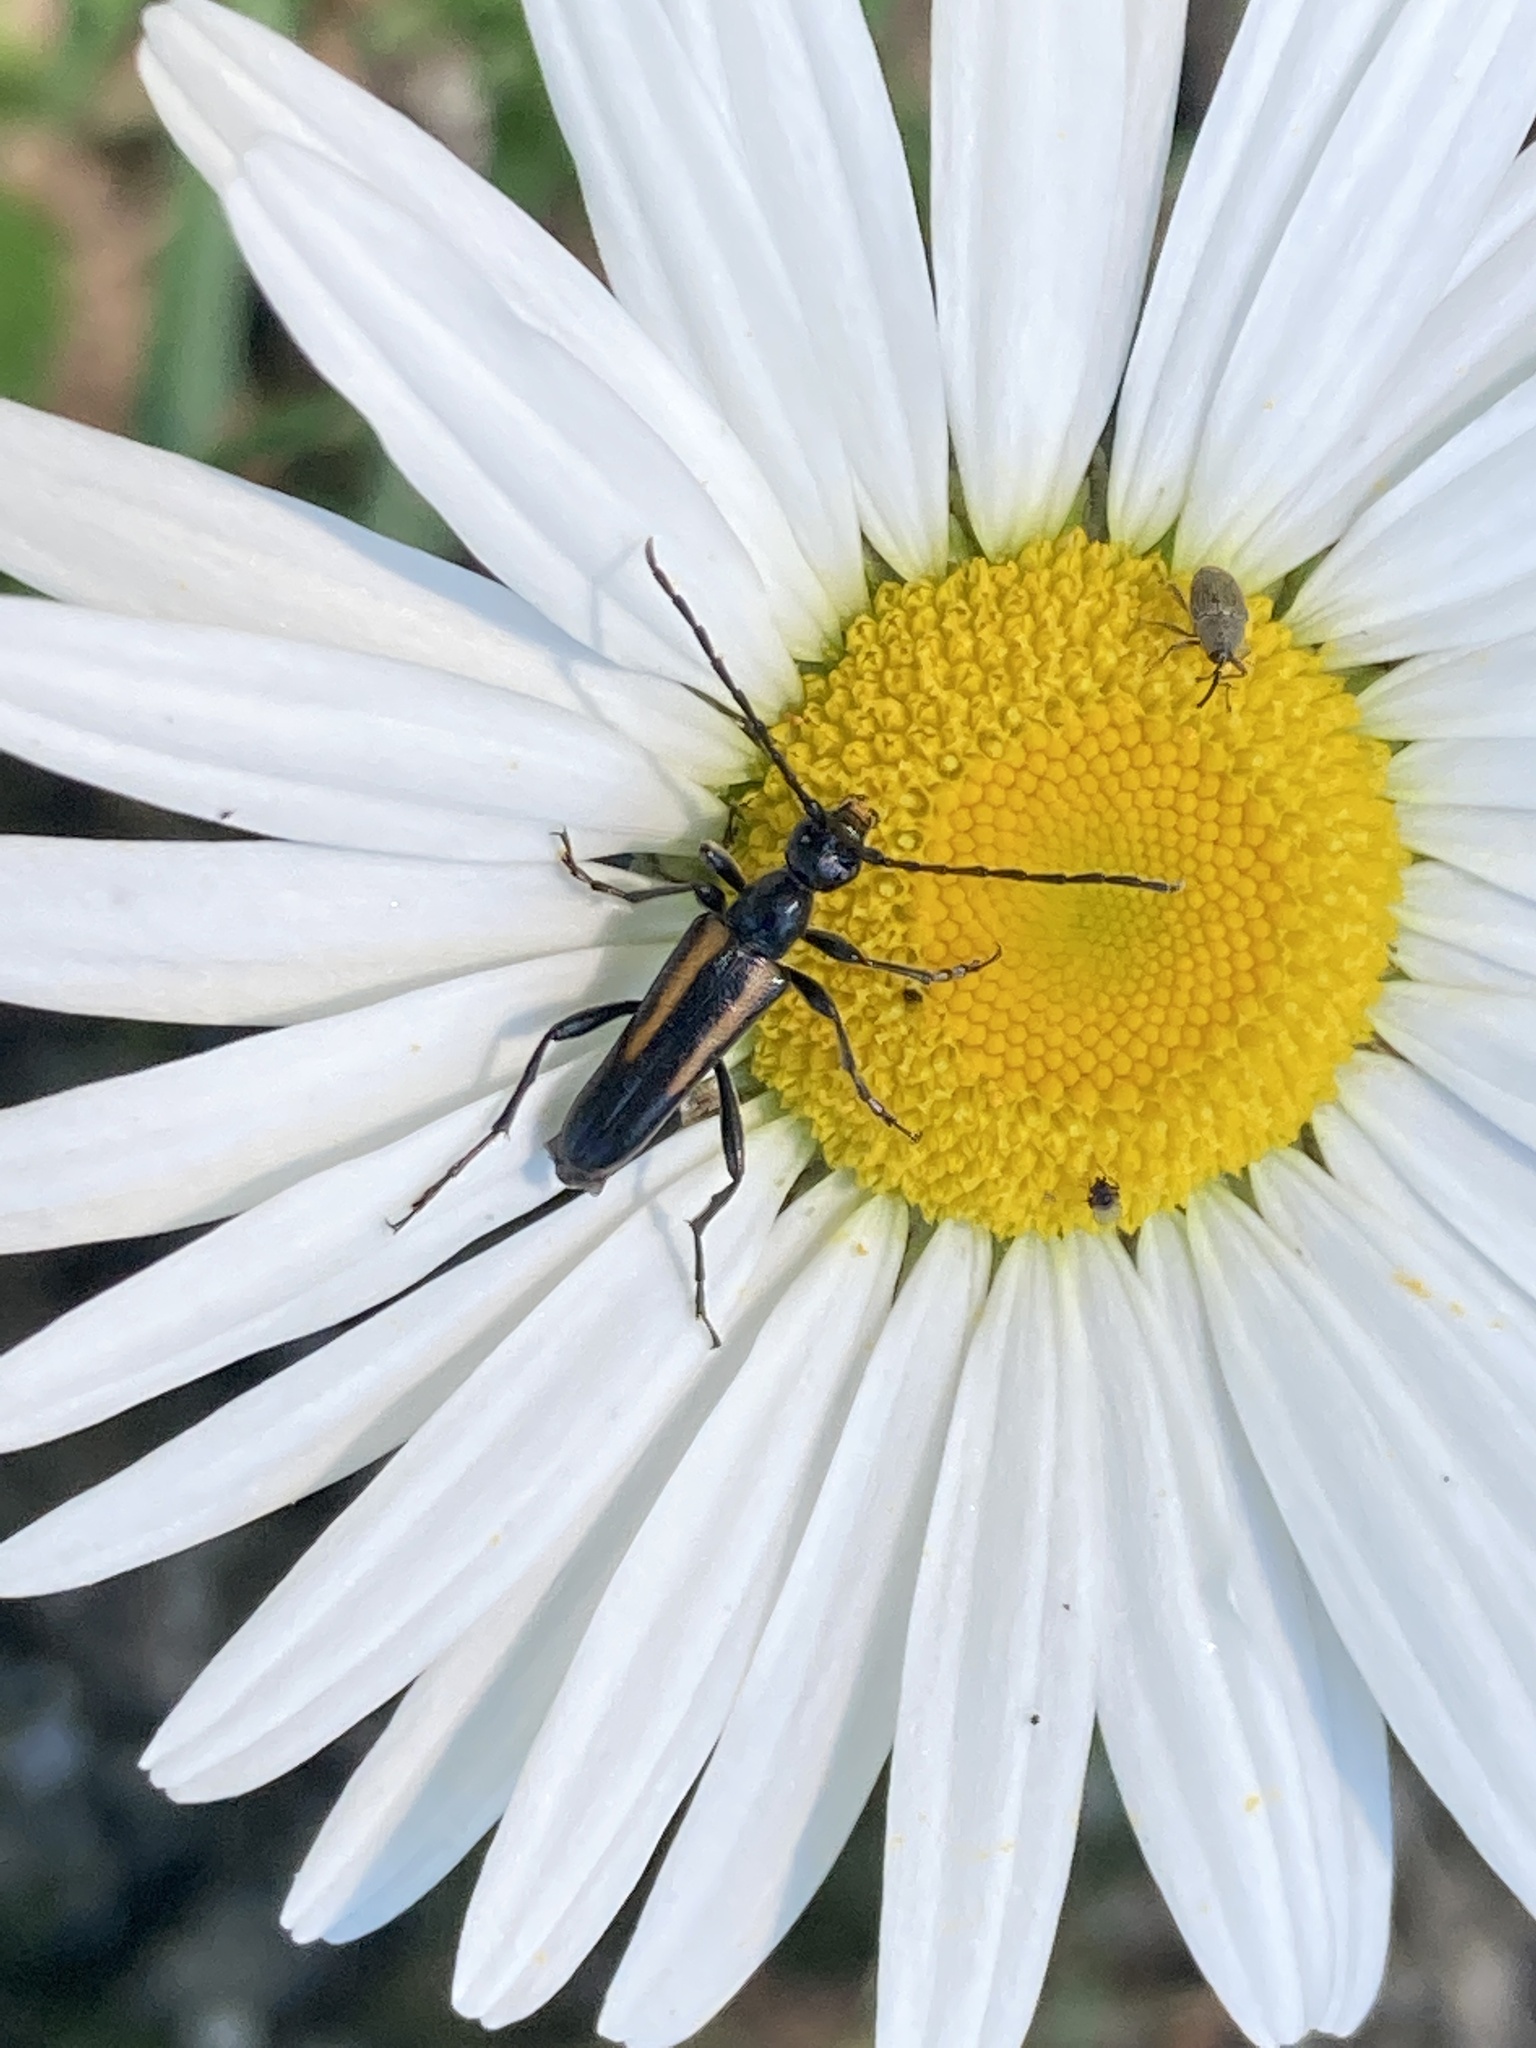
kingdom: Animalia
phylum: Arthropoda
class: Insecta
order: Coleoptera
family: Cerambycidae
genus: Strangalepta
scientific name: Strangalepta abbreviata
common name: Strangalepta flower longhorn beetle
